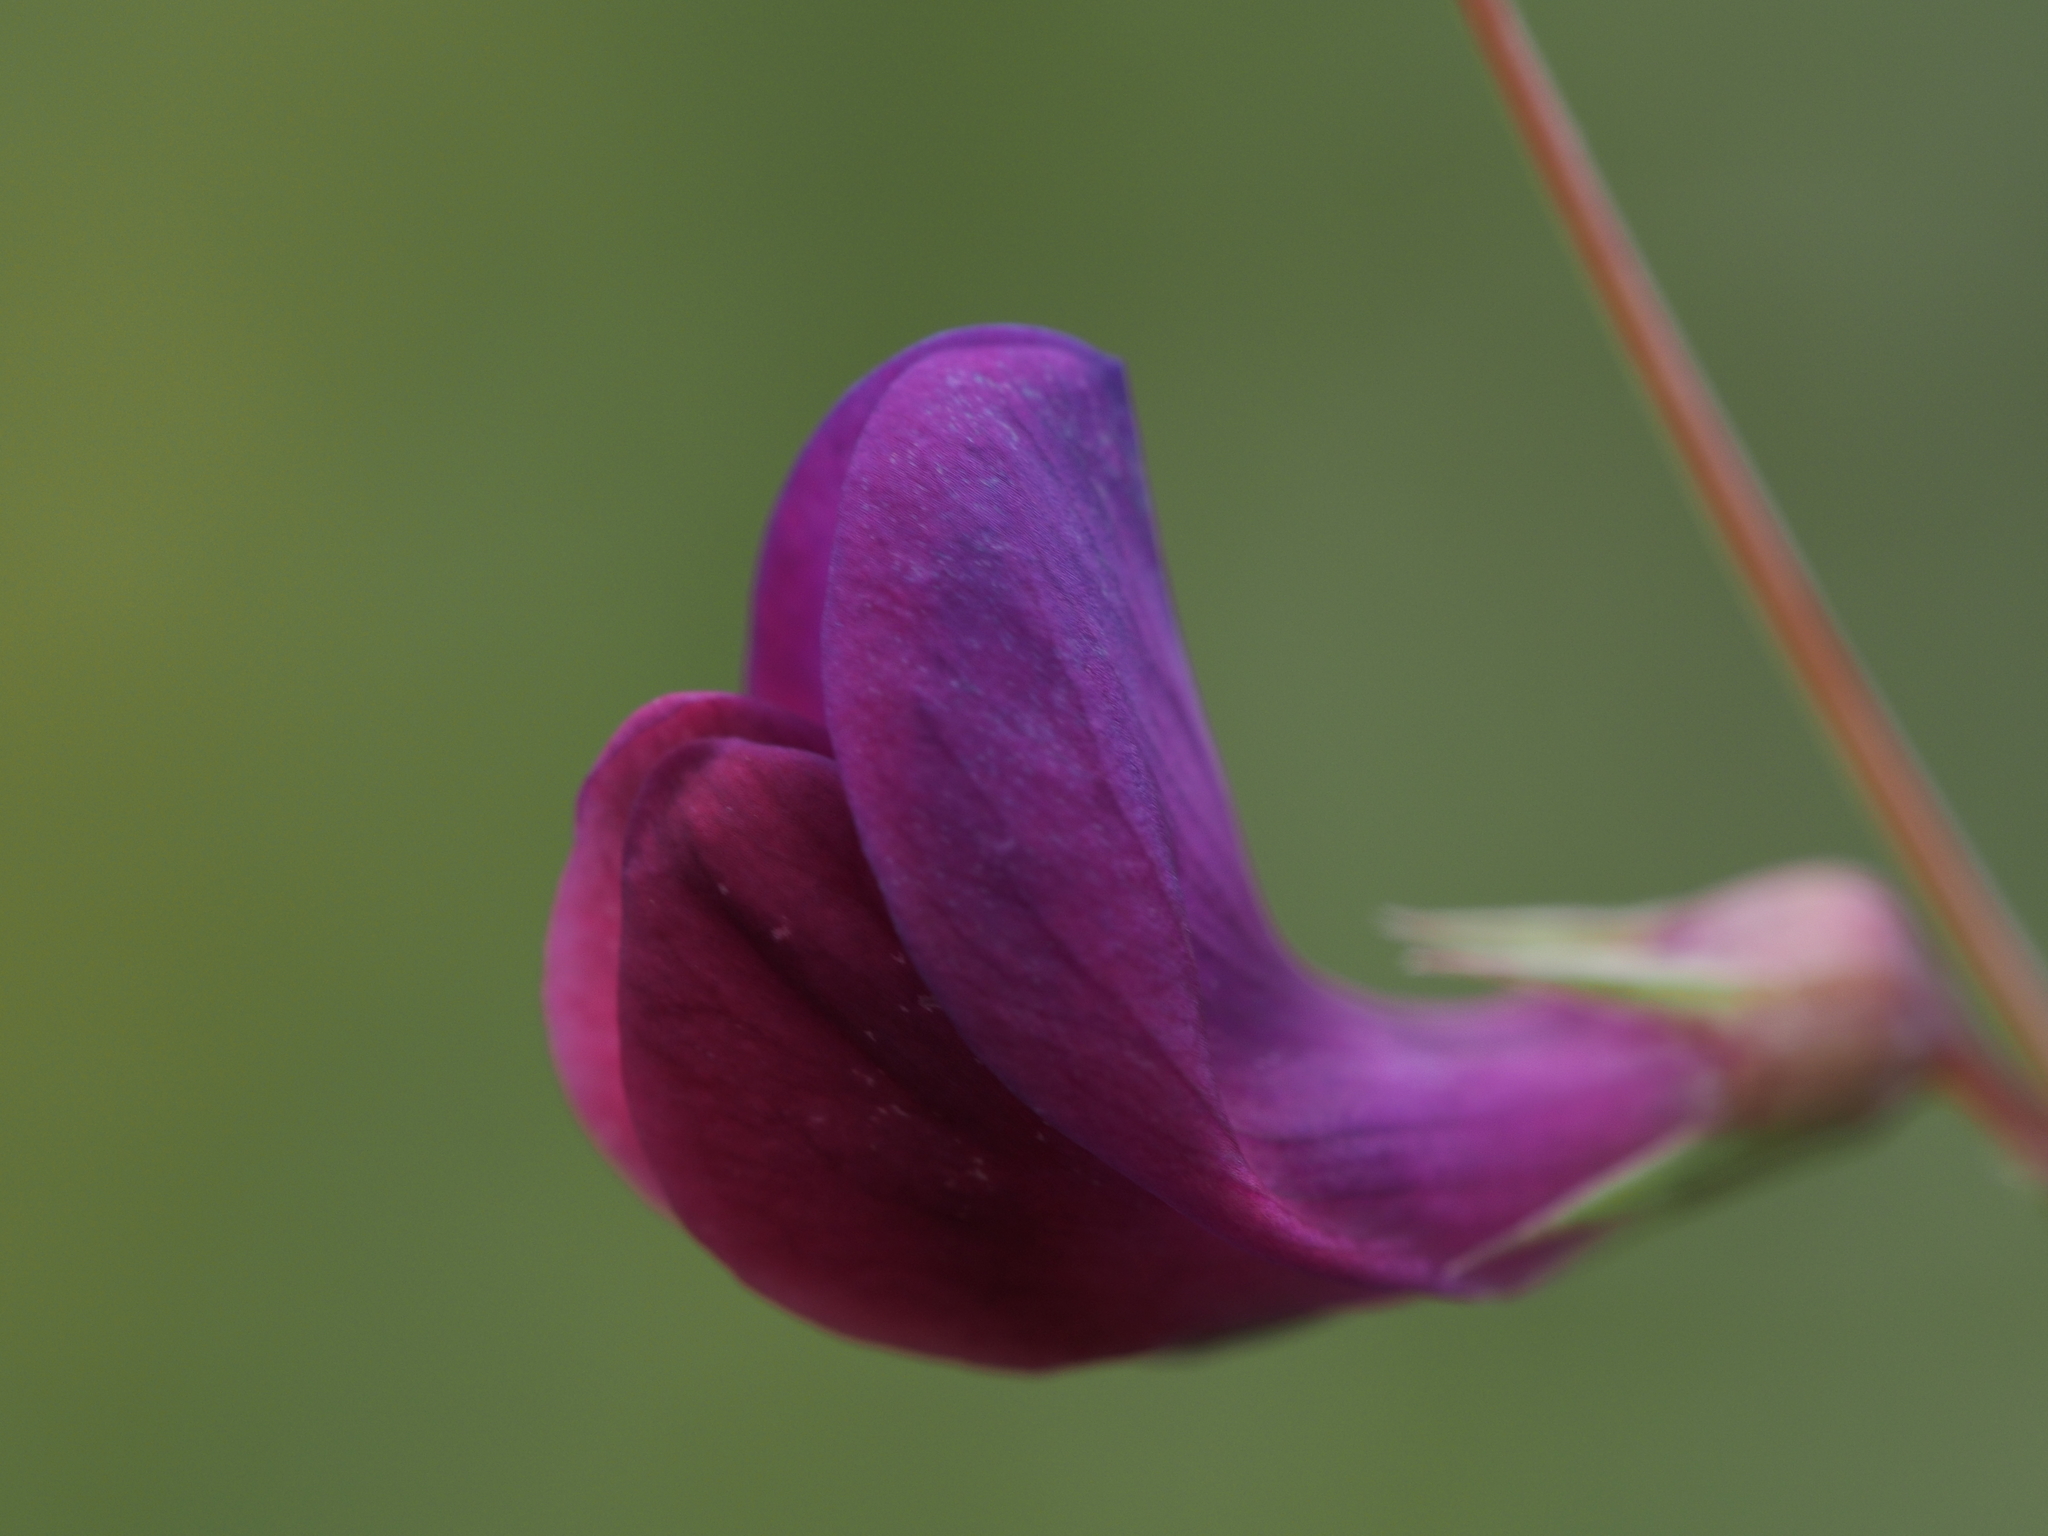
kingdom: Plantae
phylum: Tracheophyta
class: Magnoliopsida
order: Fabales
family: Fabaceae
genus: Vicia
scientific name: Vicia sativa
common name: Garden vetch
